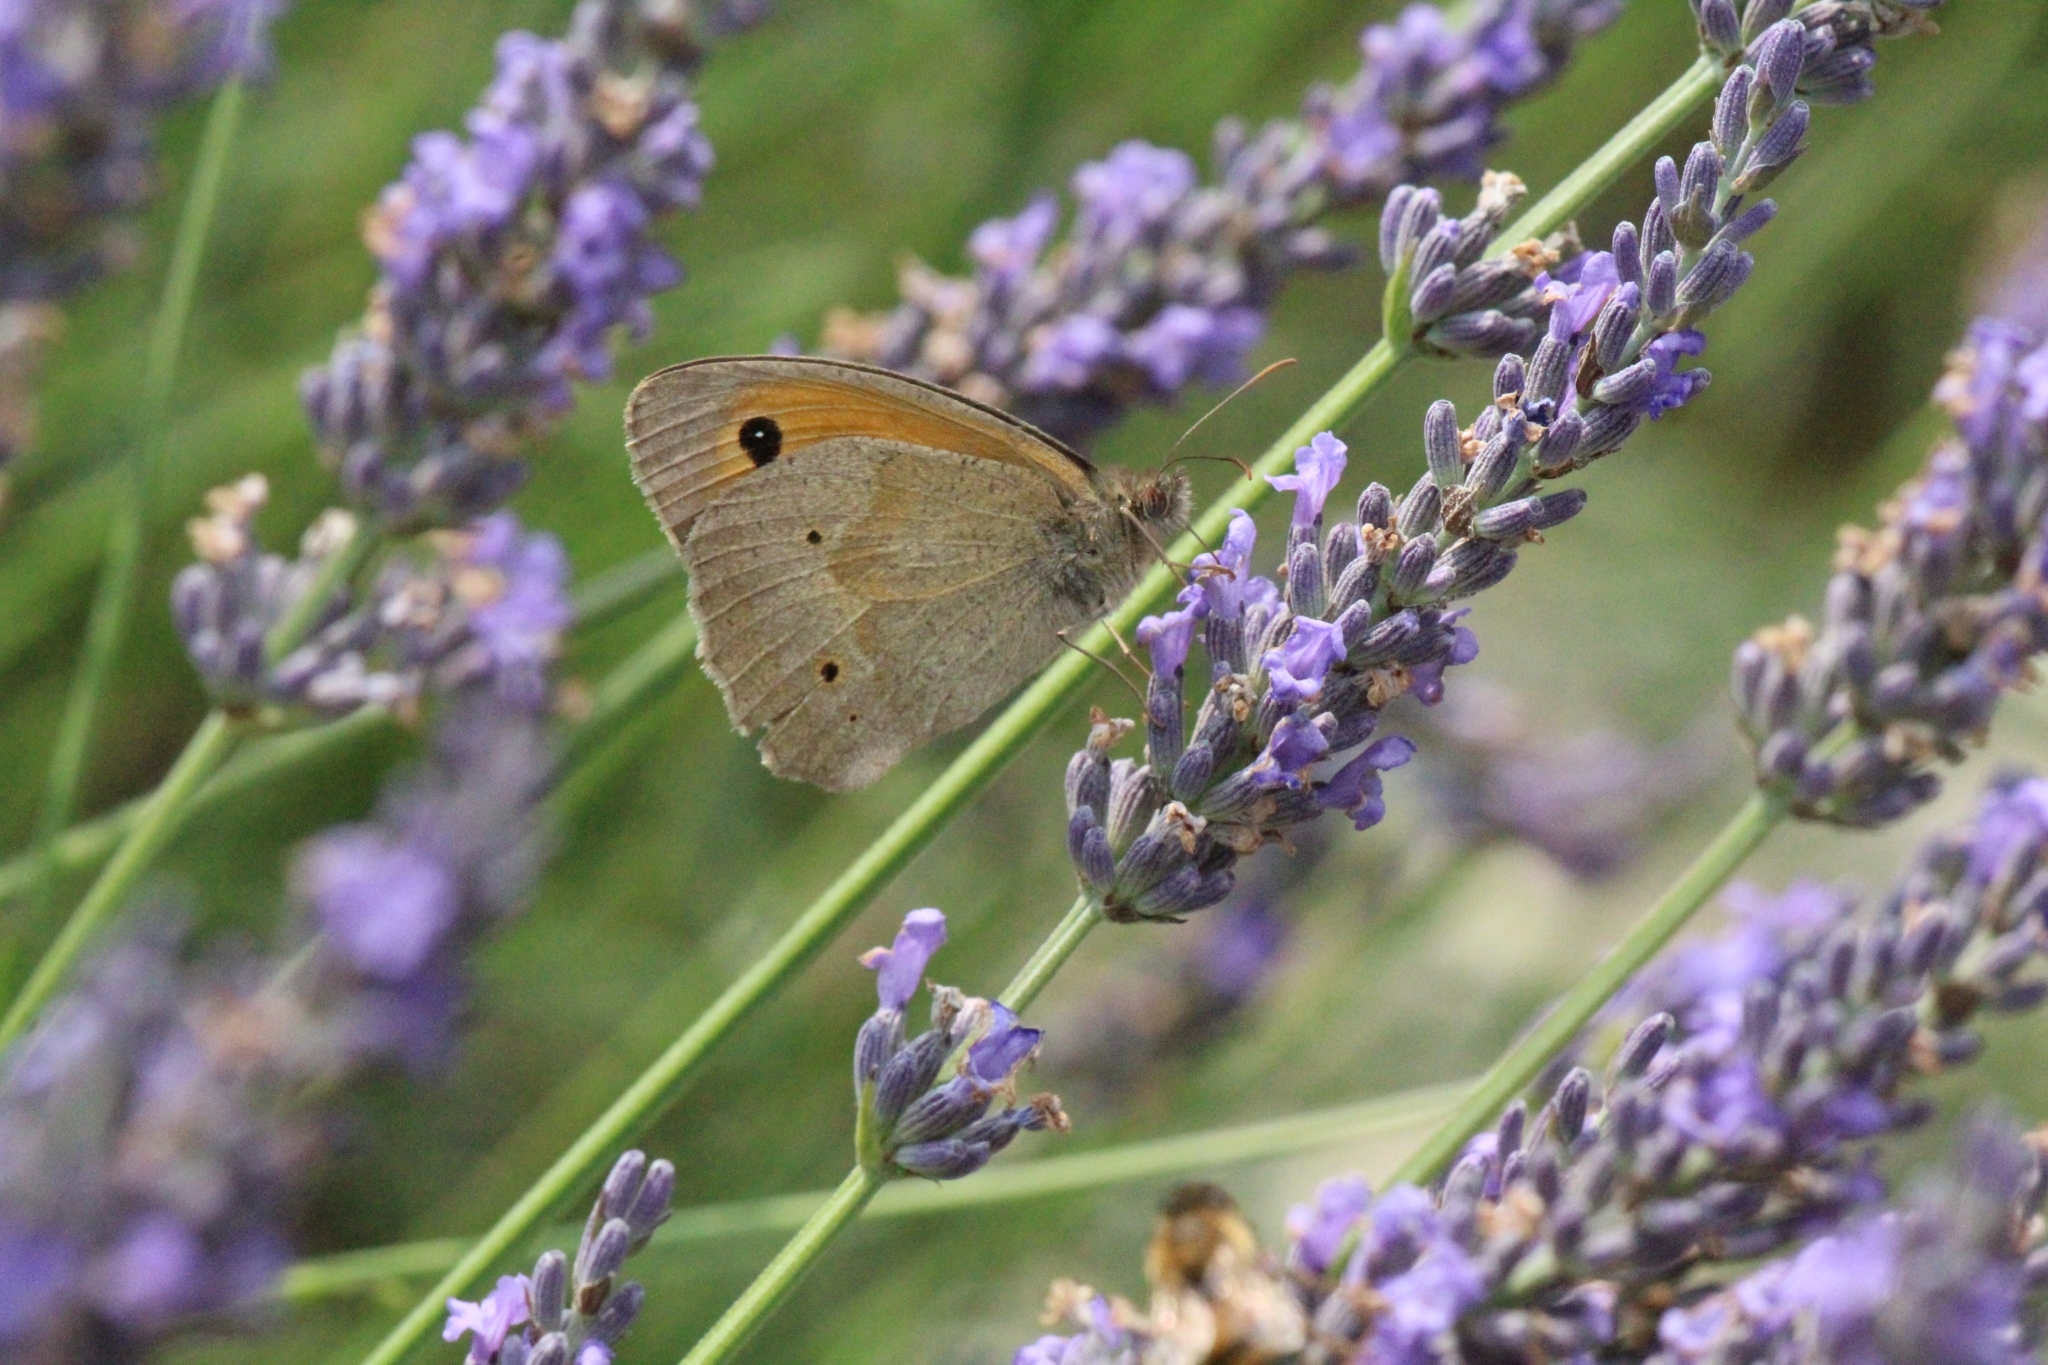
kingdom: Animalia
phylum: Arthropoda
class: Insecta
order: Lepidoptera
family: Nymphalidae
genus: Maniola
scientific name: Maniola jurtina
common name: Meadow brown
